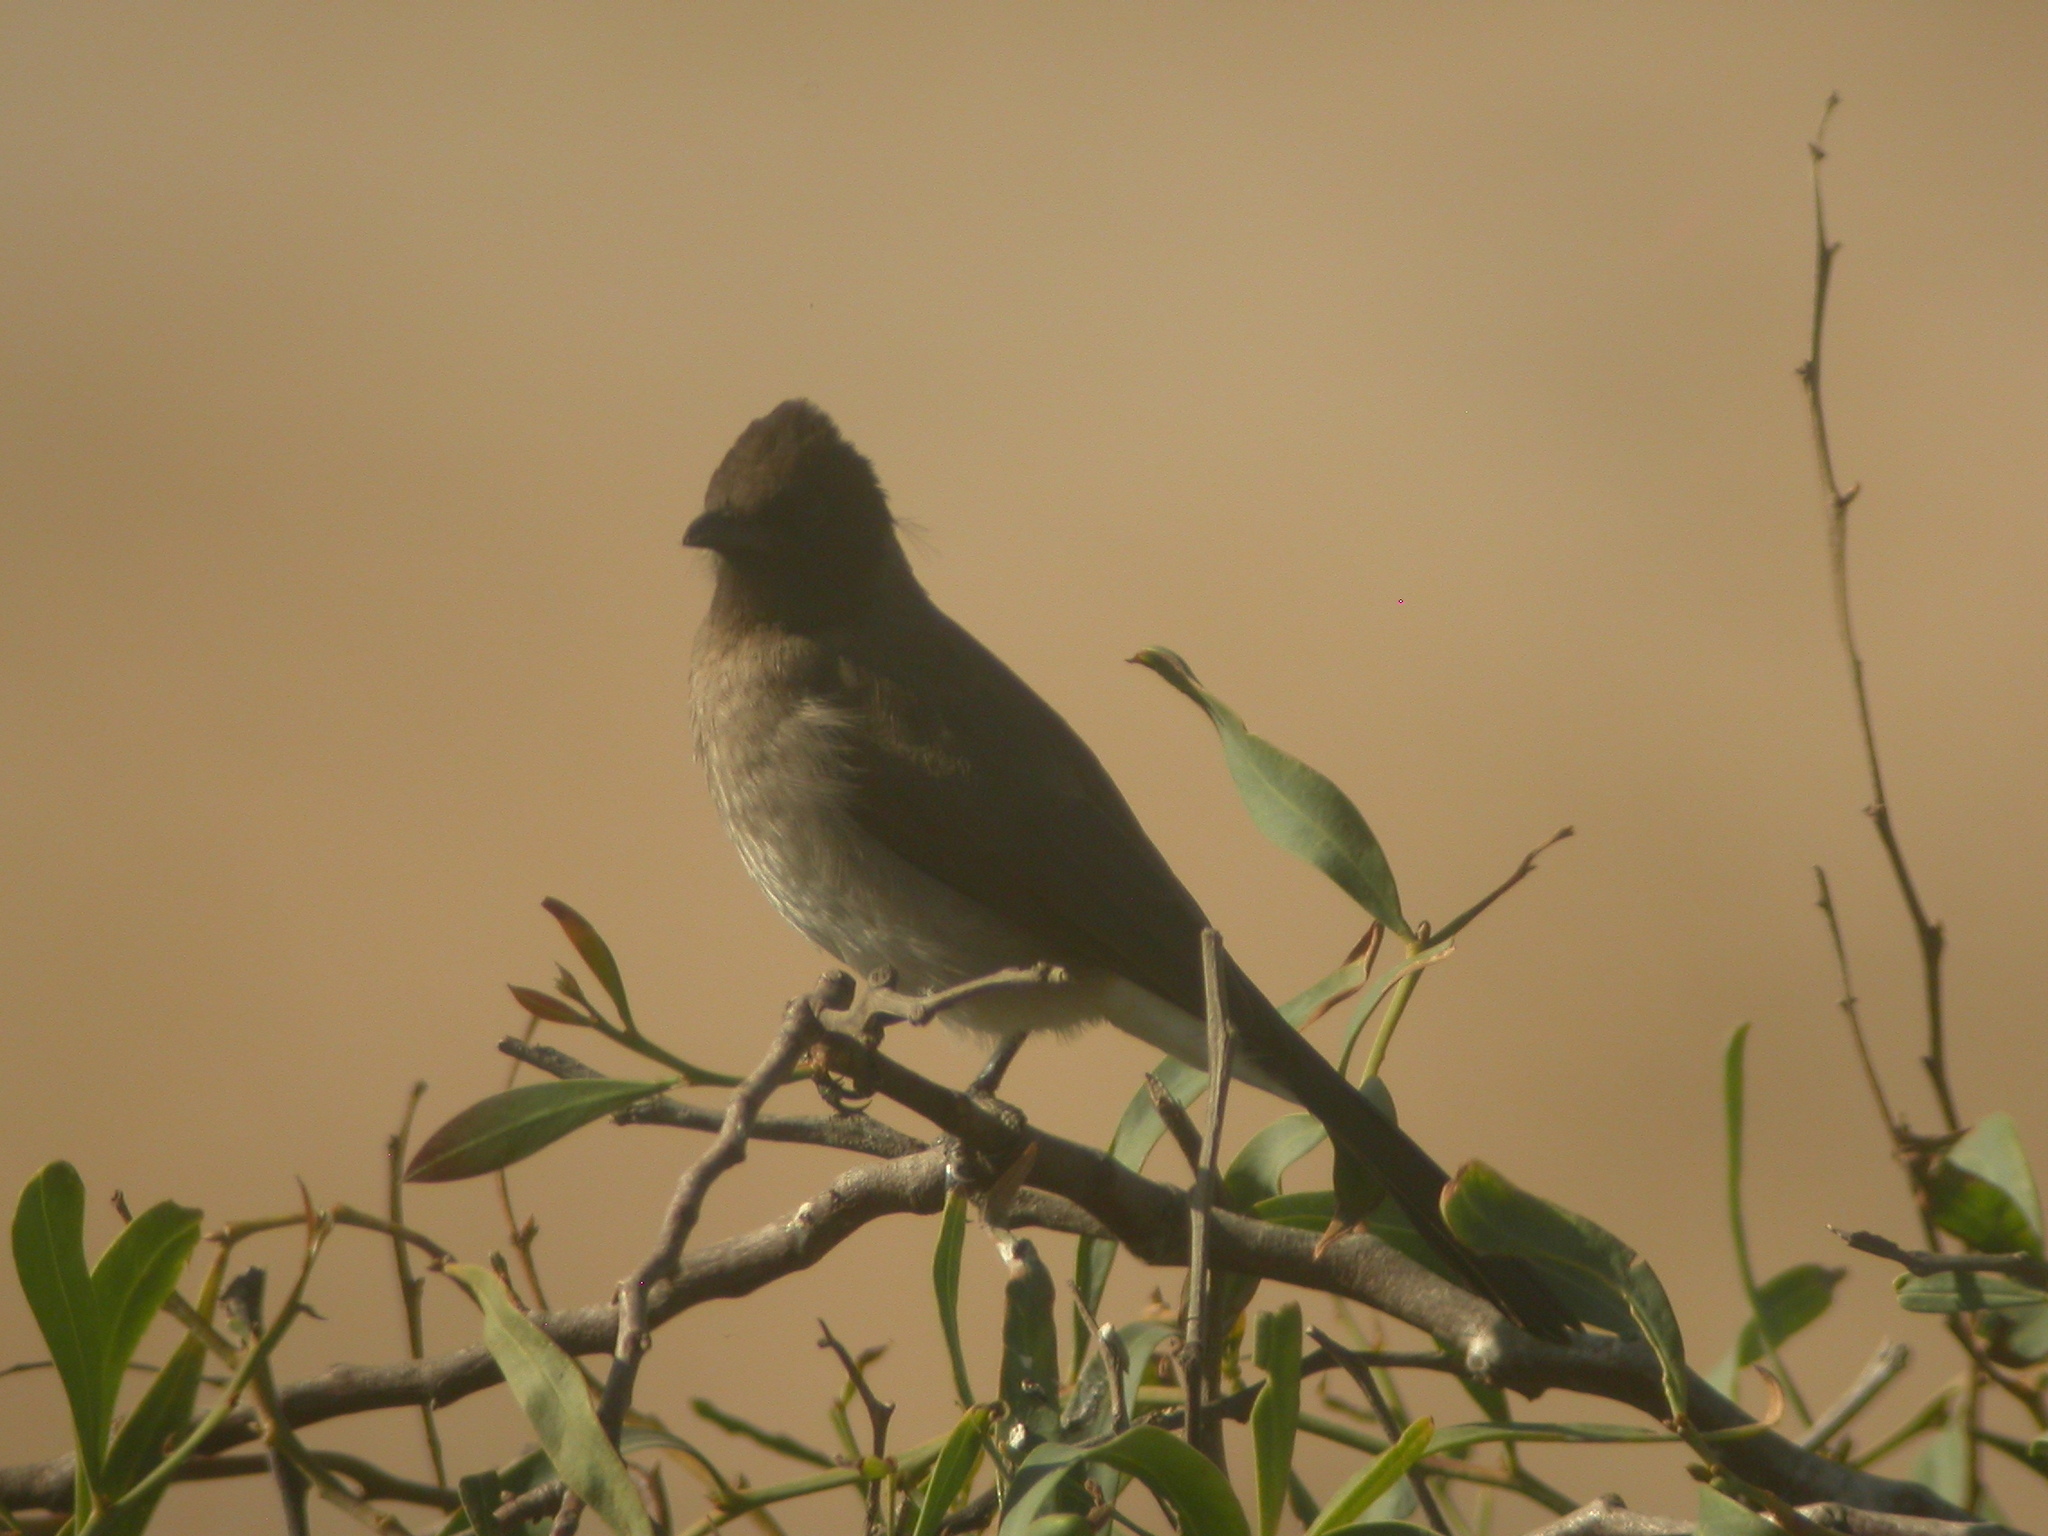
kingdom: Animalia
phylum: Chordata
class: Aves
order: Passeriformes
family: Pycnonotidae
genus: Pycnonotus
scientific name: Pycnonotus barbatus
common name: Common bulbul
